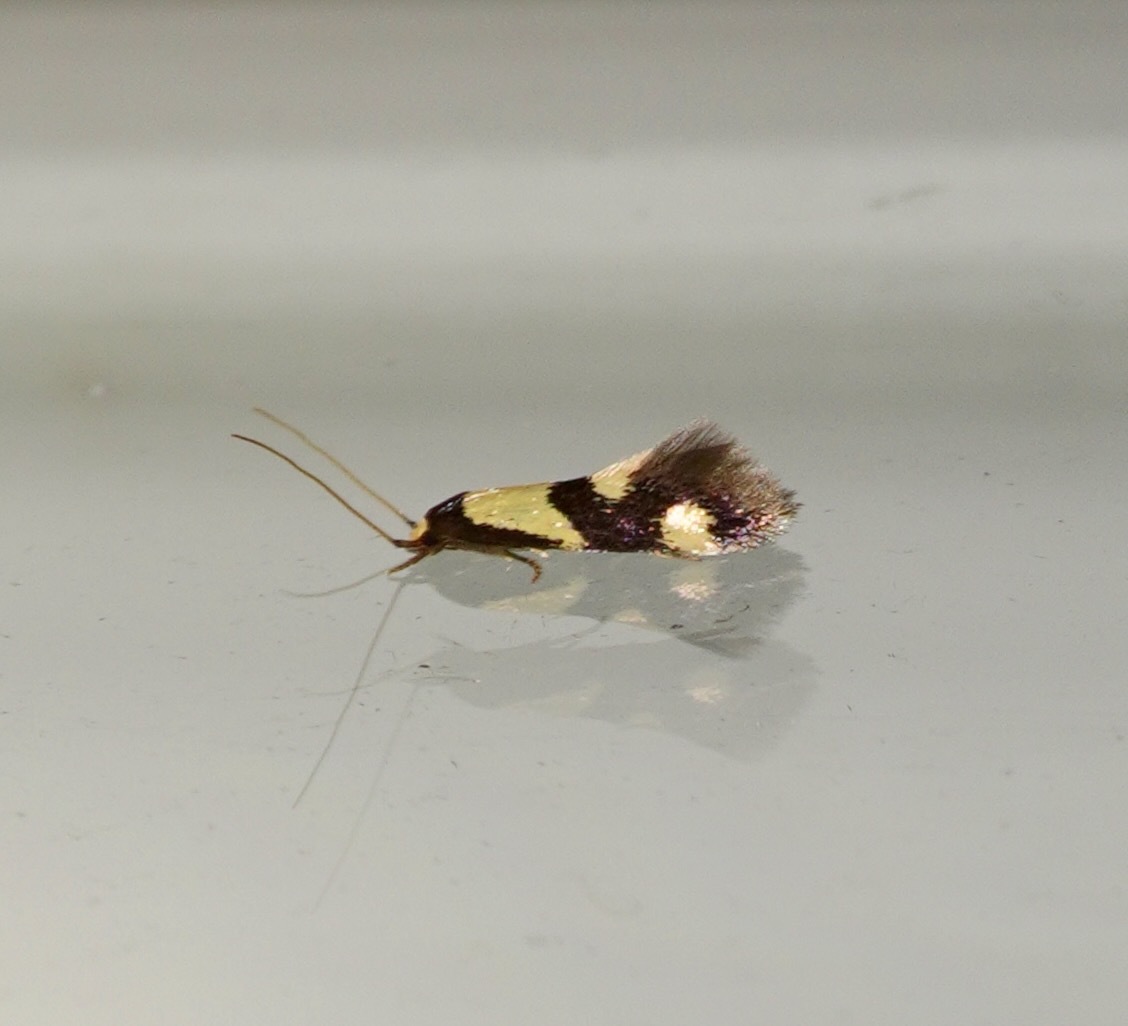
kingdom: Animalia
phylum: Arthropoda
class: Insecta
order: Lepidoptera
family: Tineidae
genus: Opogona
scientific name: Opogona comptella
